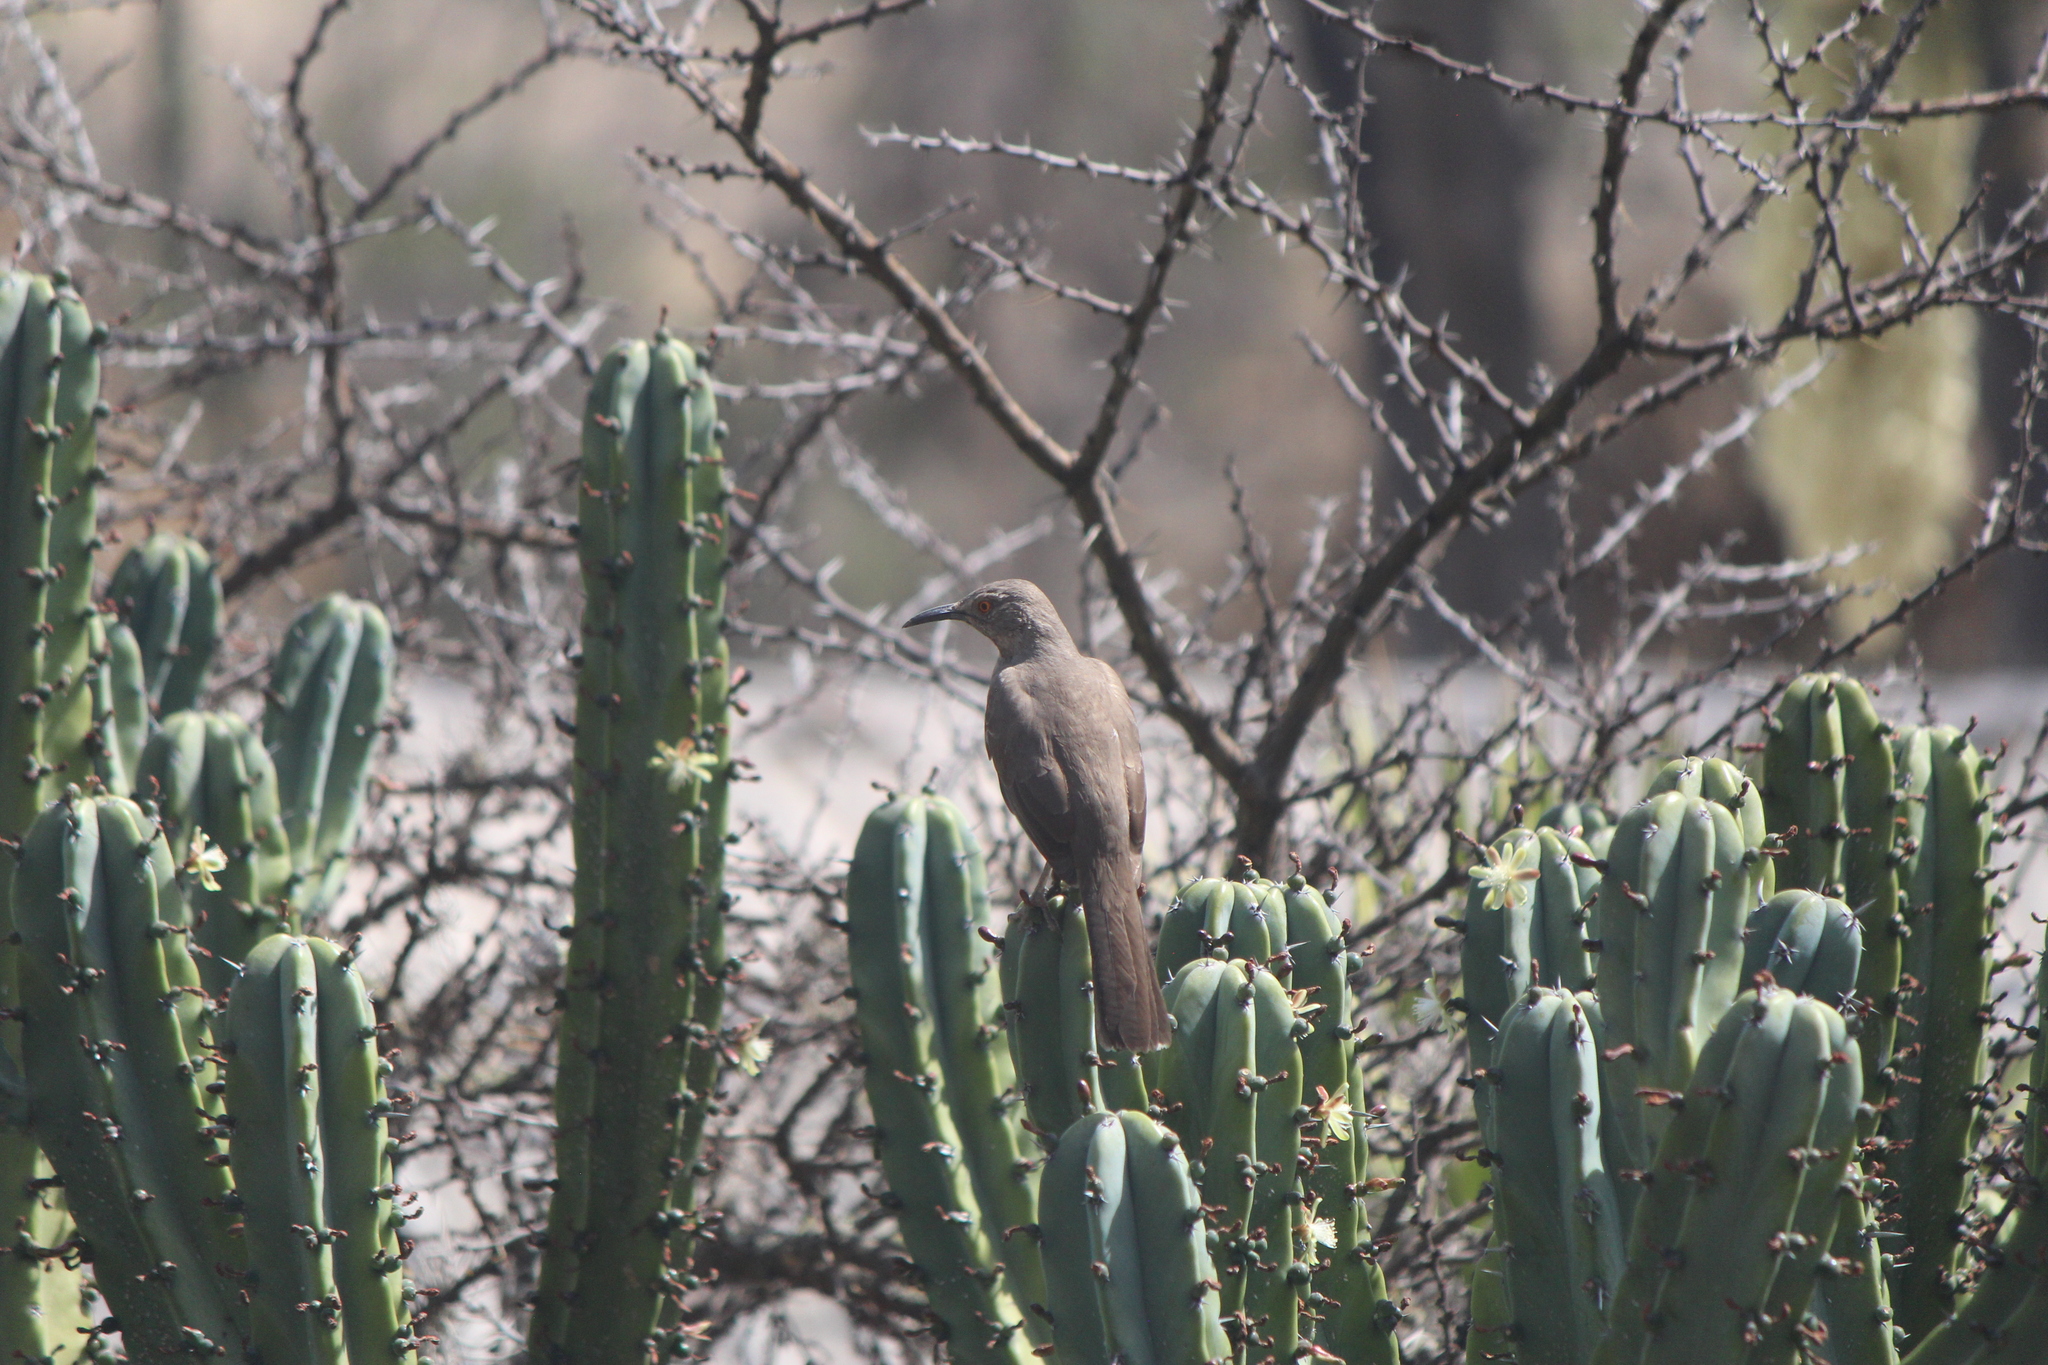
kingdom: Animalia
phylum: Chordata
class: Aves
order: Passeriformes
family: Mimidae
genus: Toxostoma
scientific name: Toxostoma curvirostre
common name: Curve-billed thrasher
